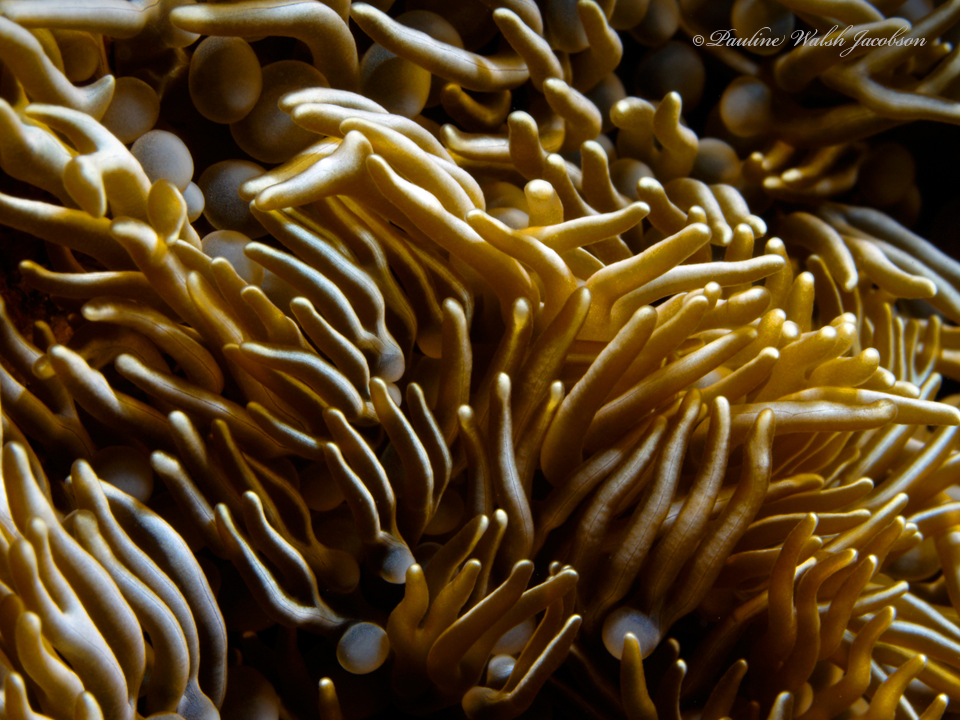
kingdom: Animalia
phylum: Cnidaria
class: Anthozoa
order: Actiniaria
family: Aliciidae
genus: Lebrunia
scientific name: Lebrunia neglecta
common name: Branching anemone
